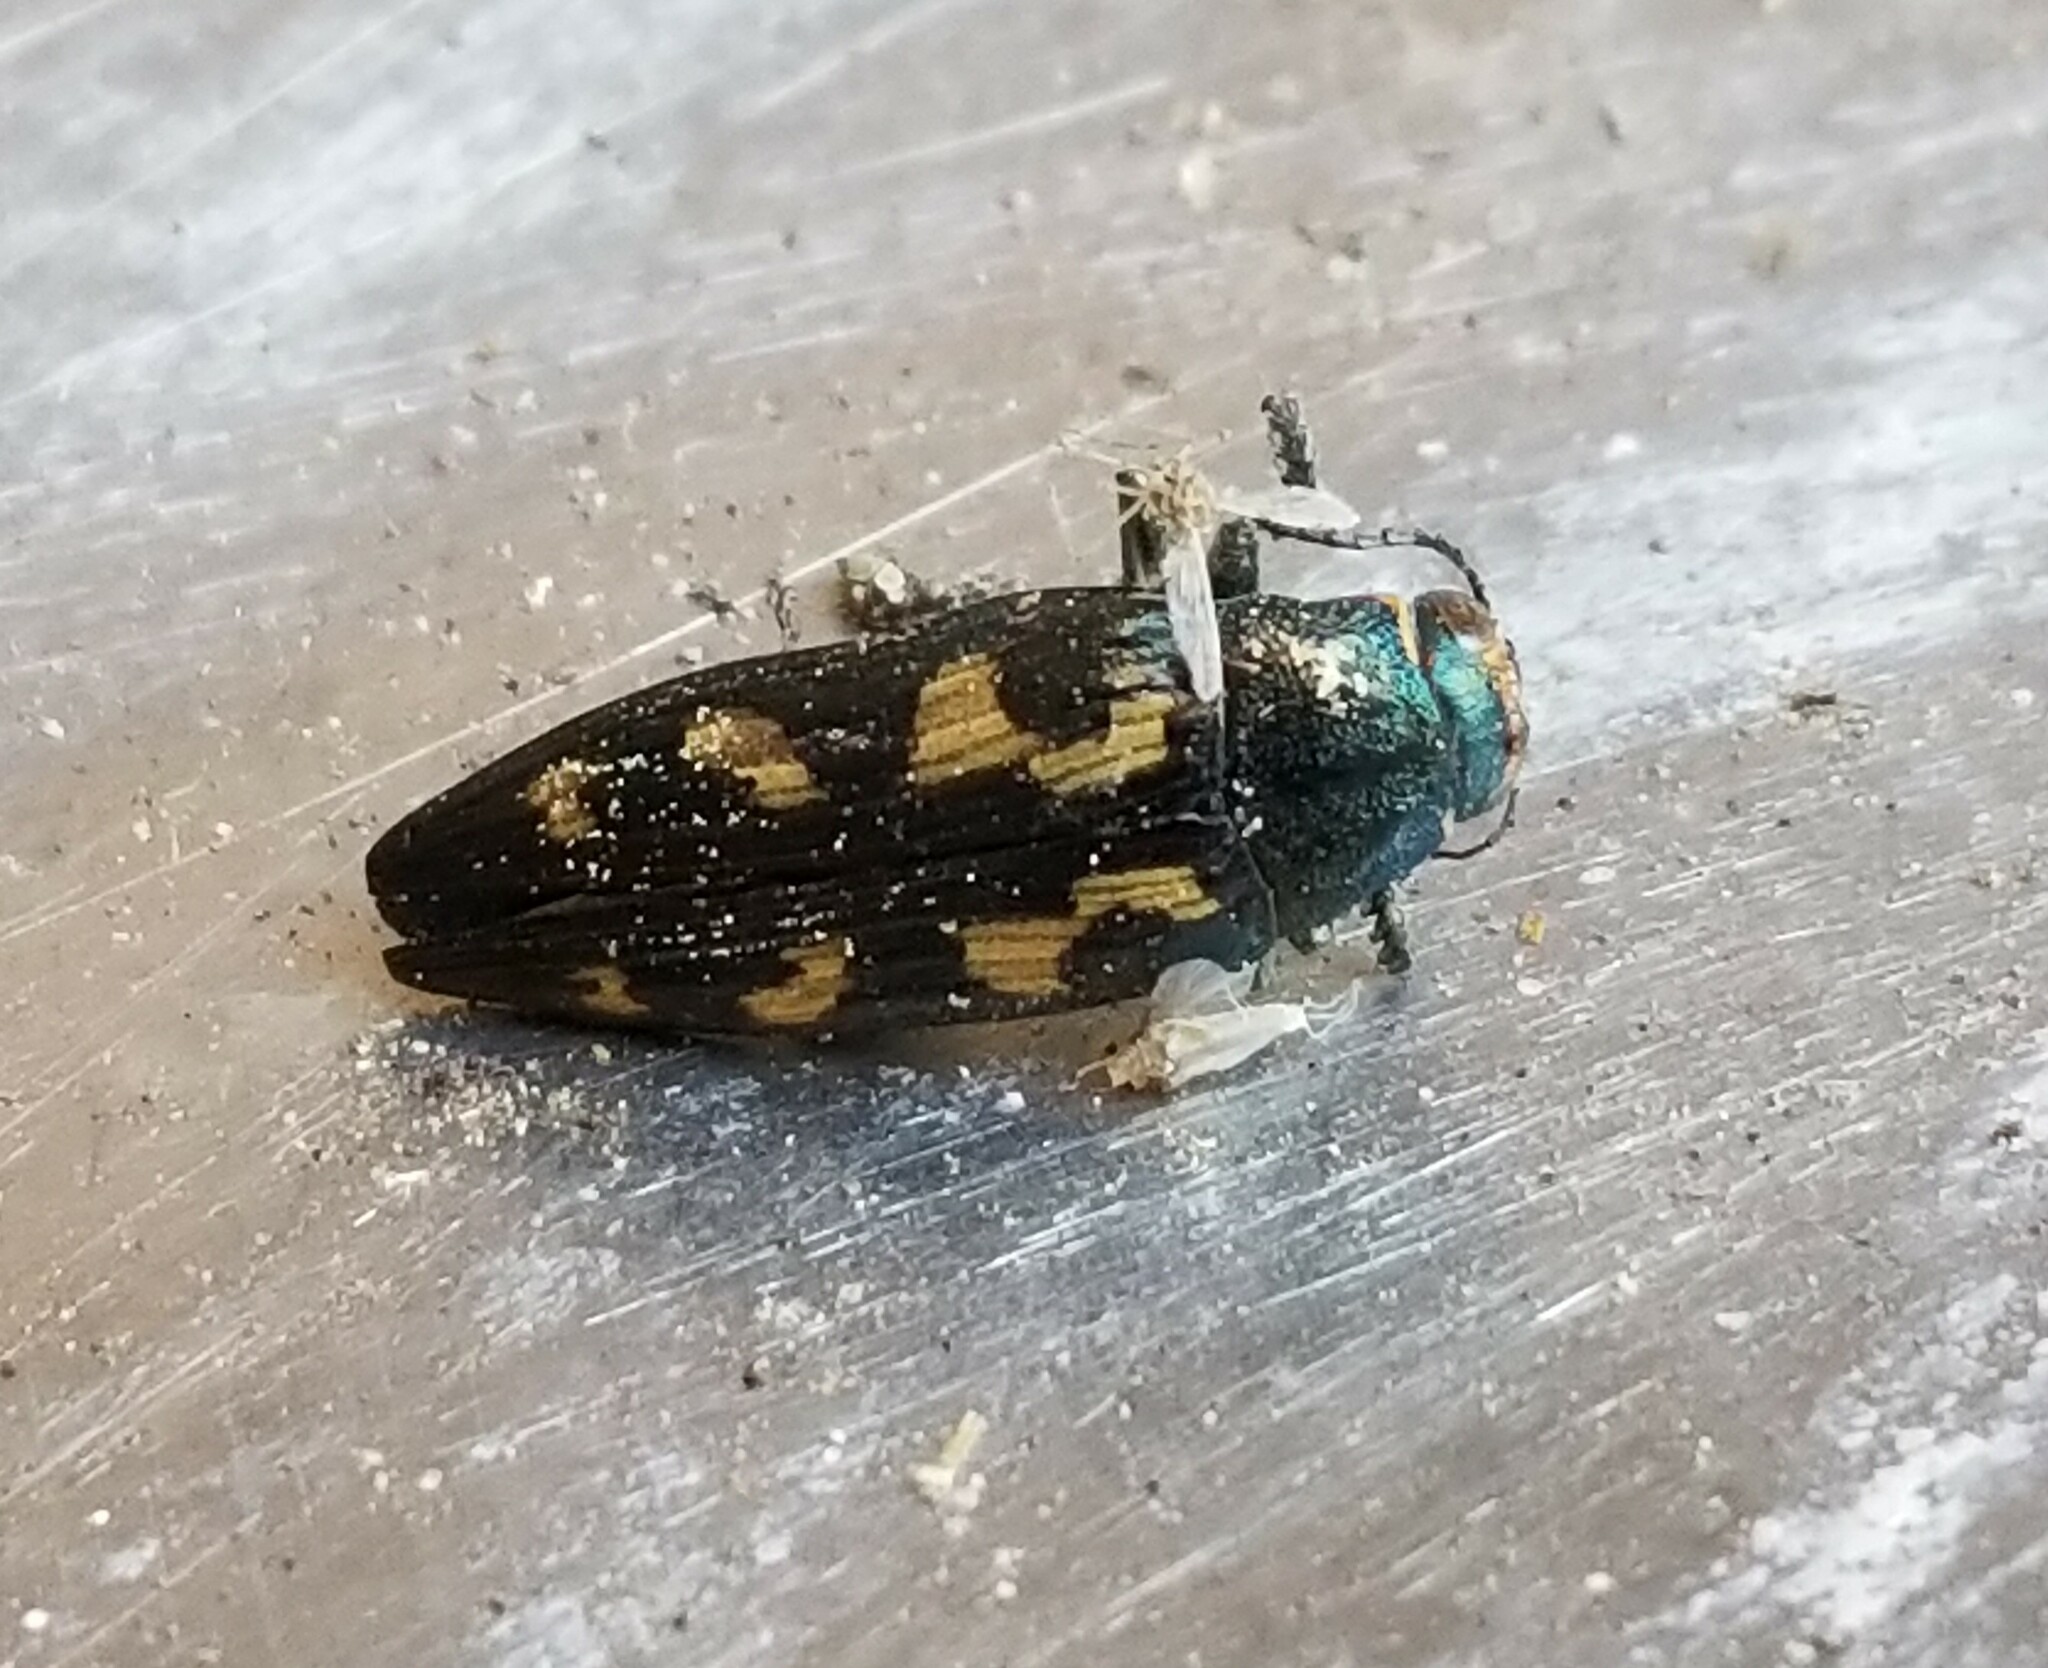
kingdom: Animalia
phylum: Arthropoda
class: Insecta
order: Coleoptera
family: Buprestidae
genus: Buprestis
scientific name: Buprestis laeviventris
